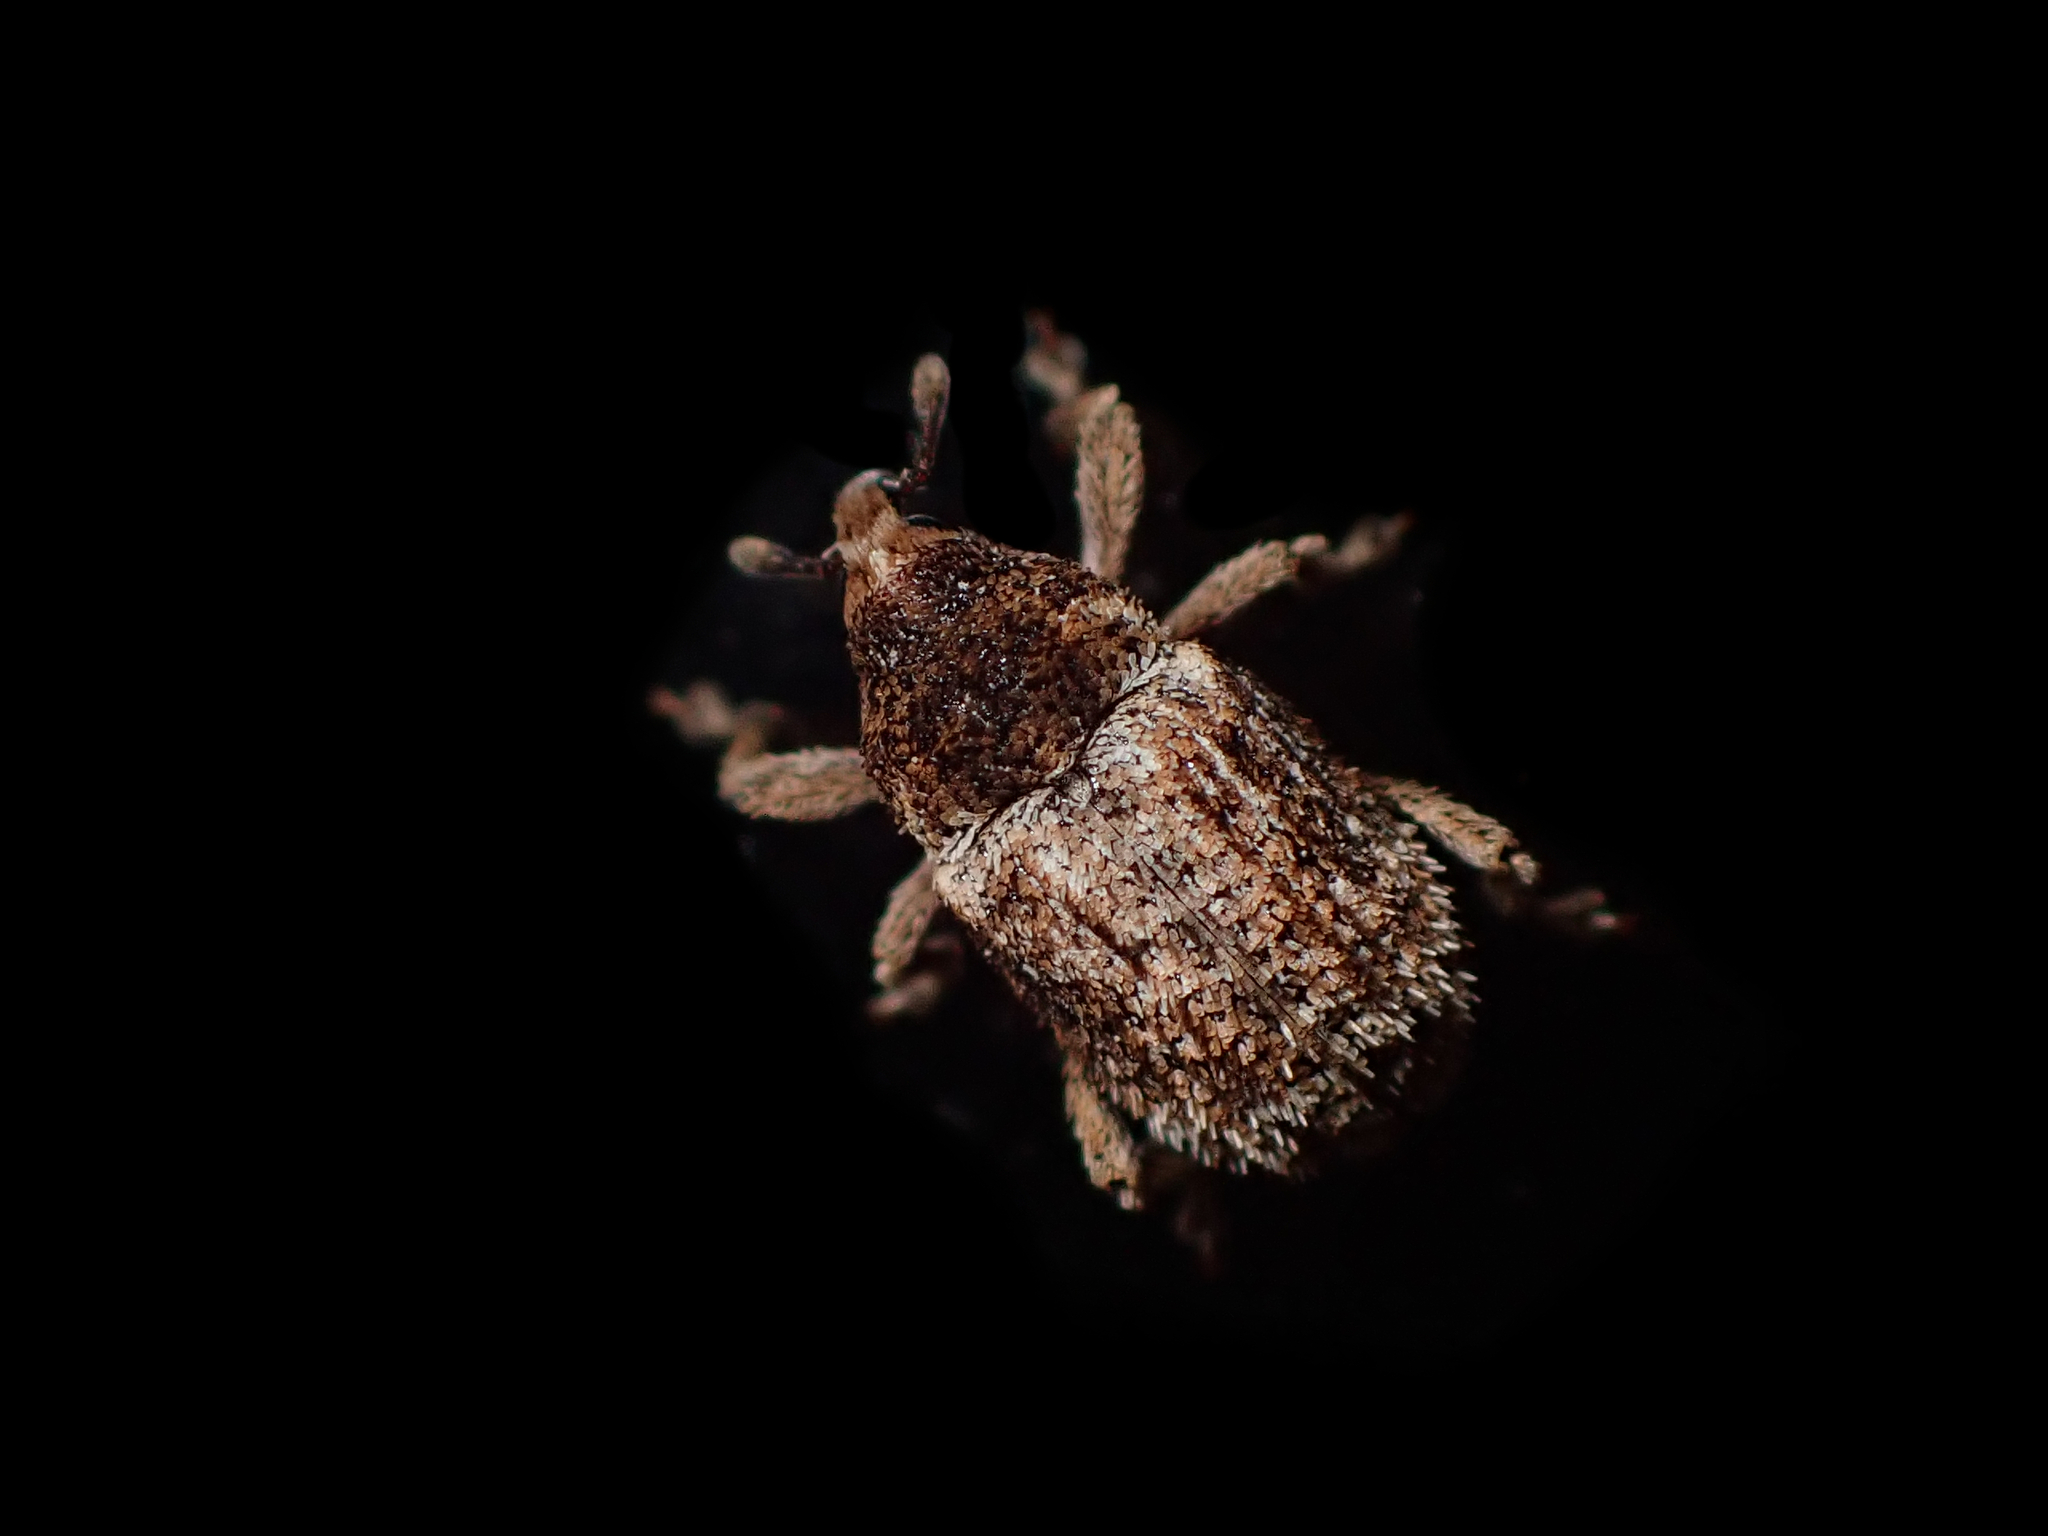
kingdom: Animalia
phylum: Arthropoda
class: Insecta
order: Coleoptera
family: Curculionidae
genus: Mesoreda
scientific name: Mesoreda sulcifrons
